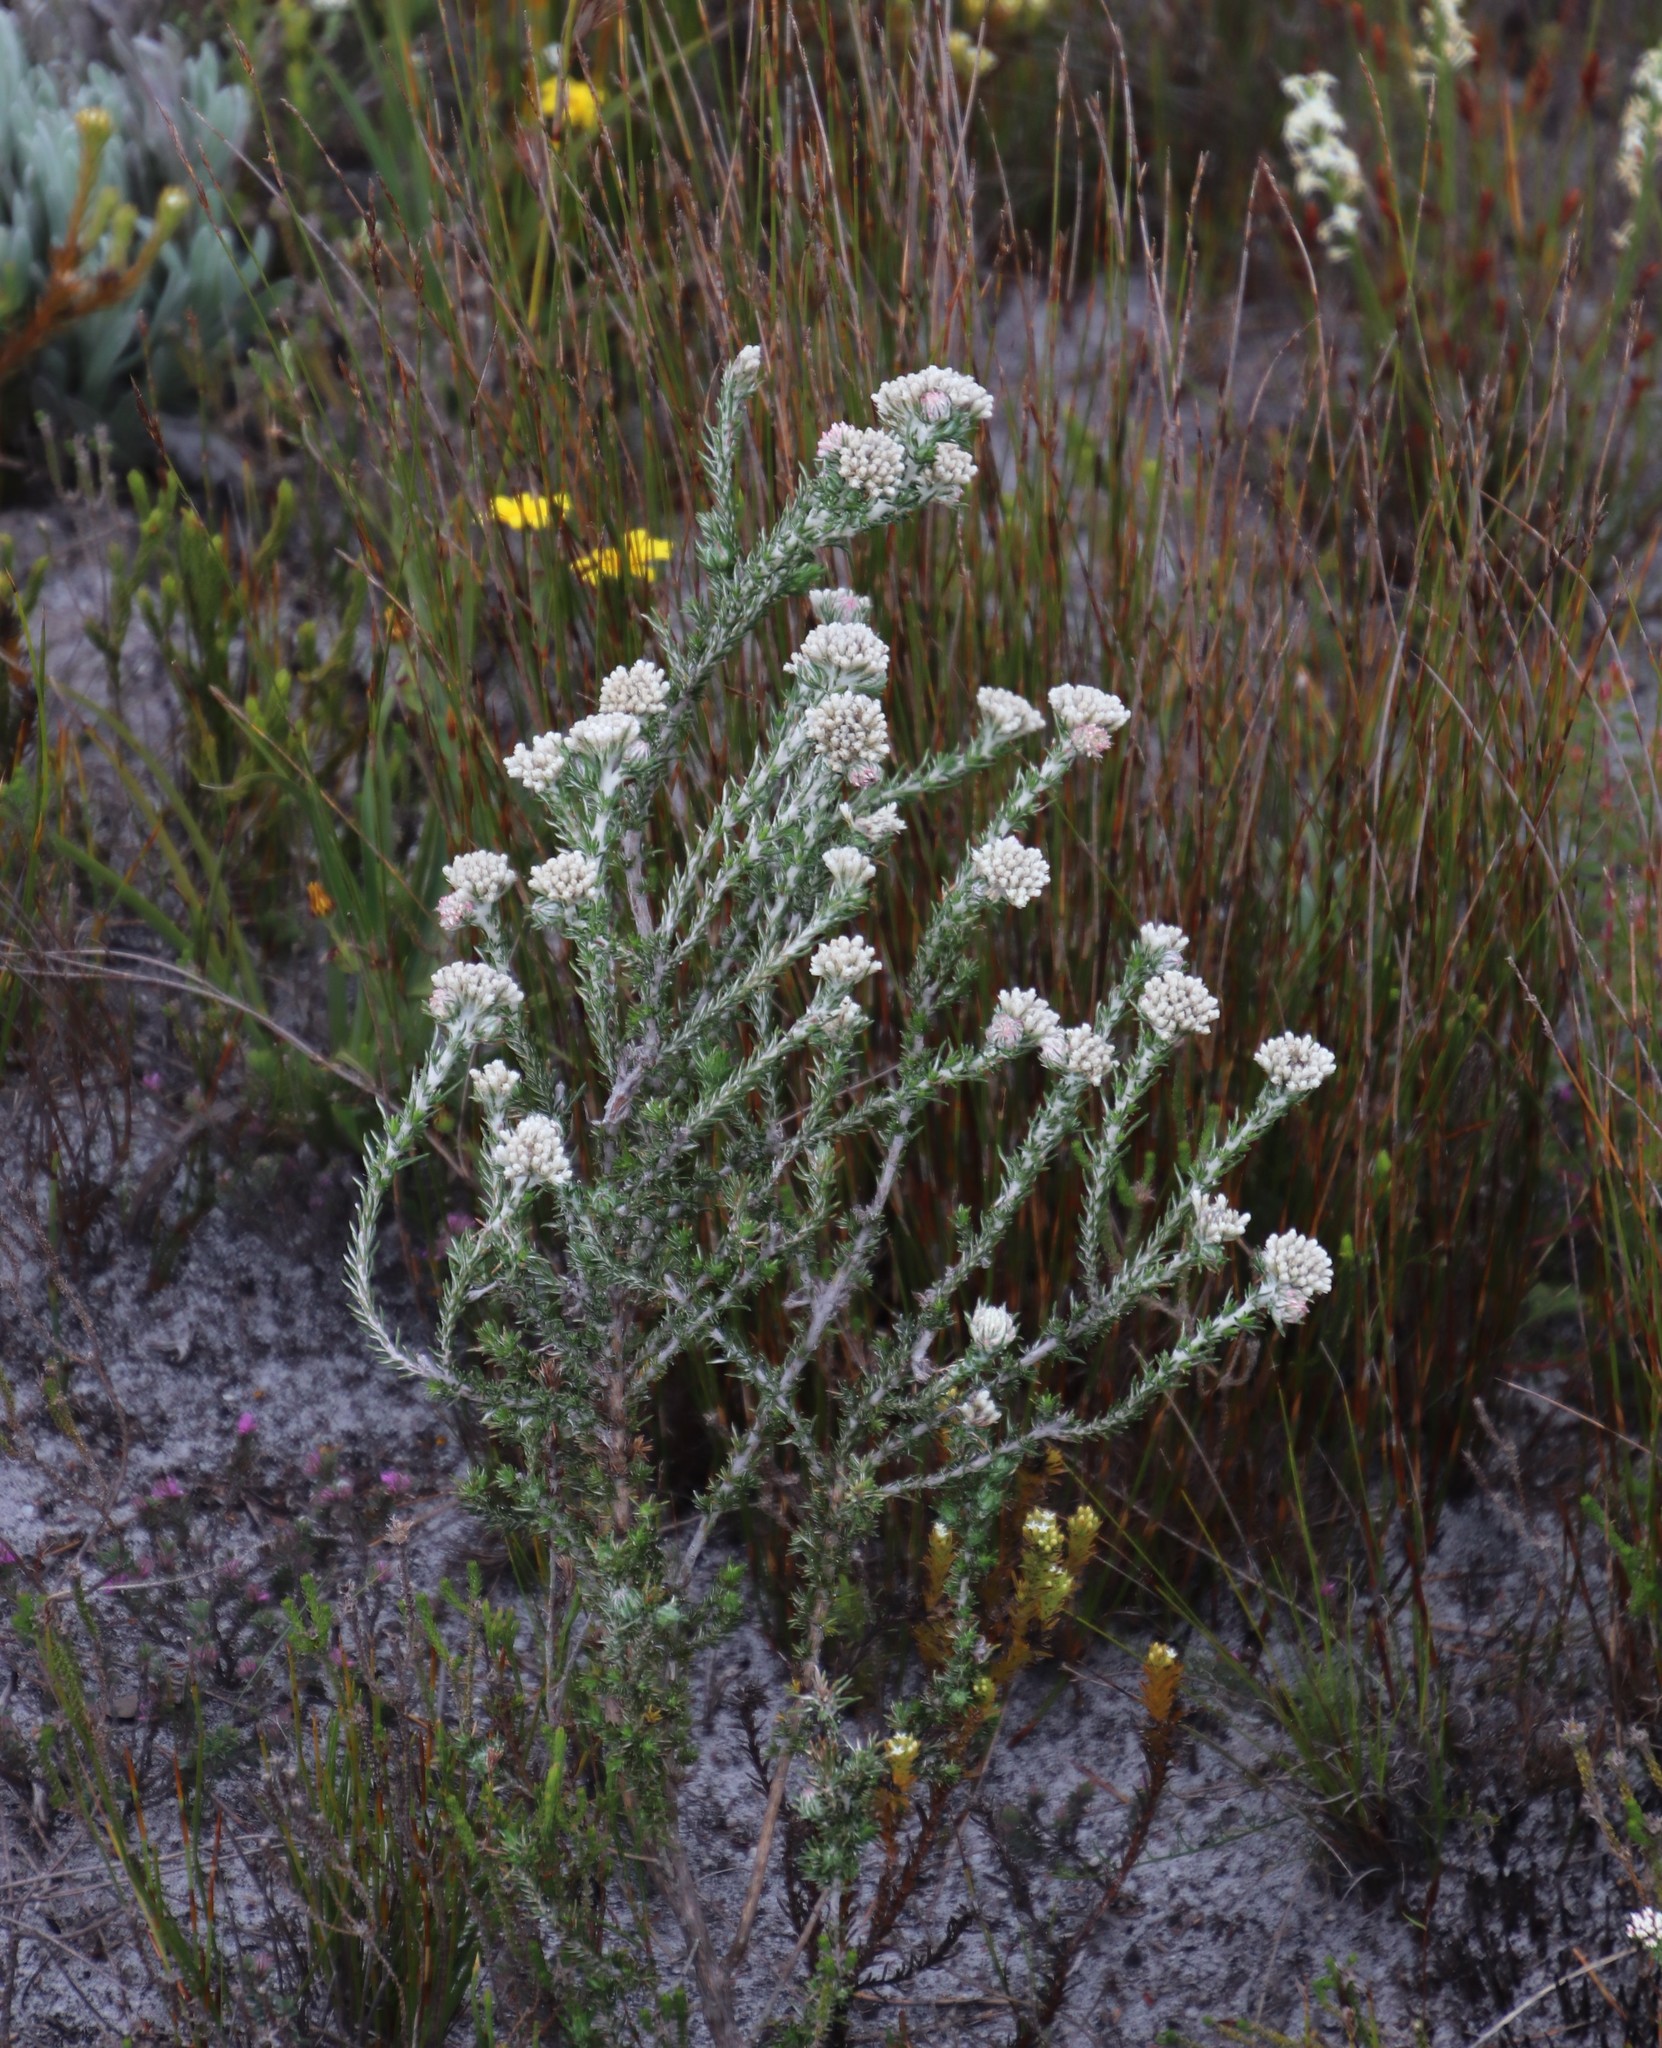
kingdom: Plantae
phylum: Tracheophyta
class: Magnoliopsida
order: Asterales
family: Asteraceae
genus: Metalasia
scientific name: Metalasia compacta
